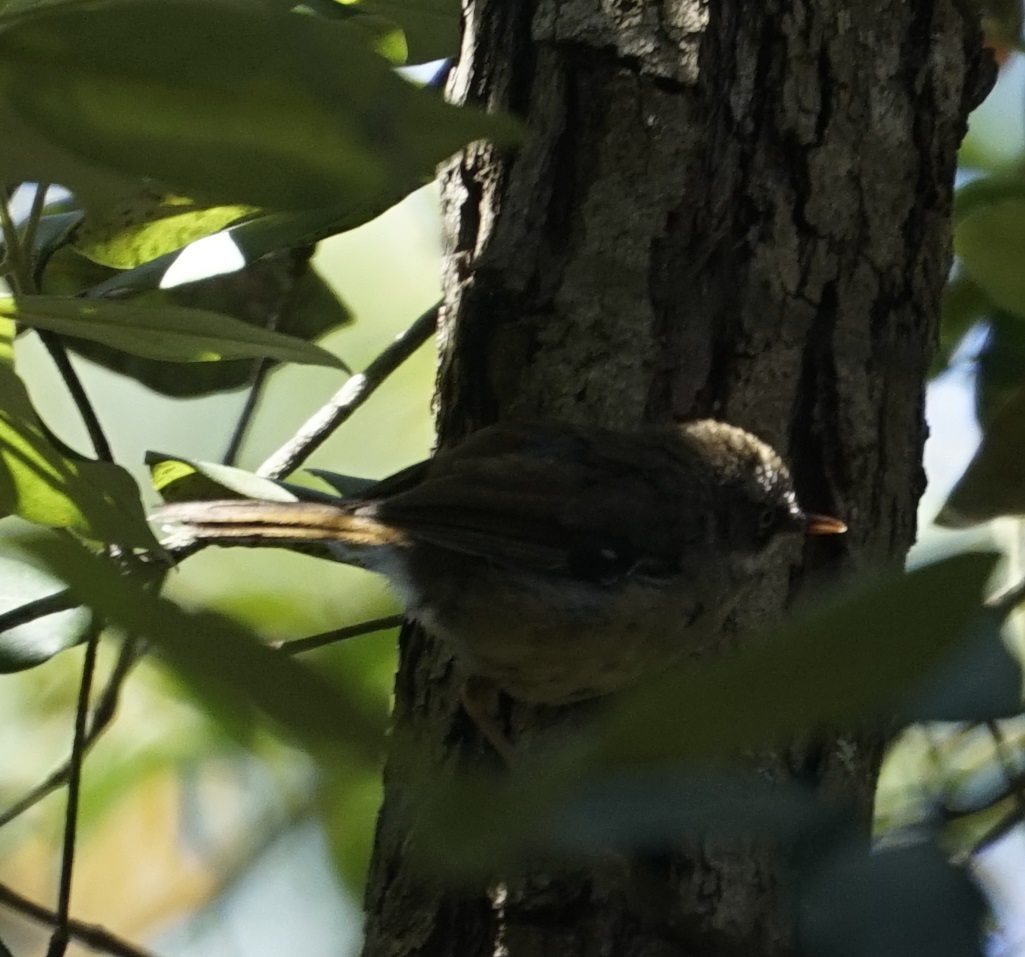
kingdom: Animalia
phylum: Chordata
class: Aves
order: Passeriformes
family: Acanthizidae
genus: Sericornis
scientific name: Sericornis frontalis
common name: White-browed scrubwren
